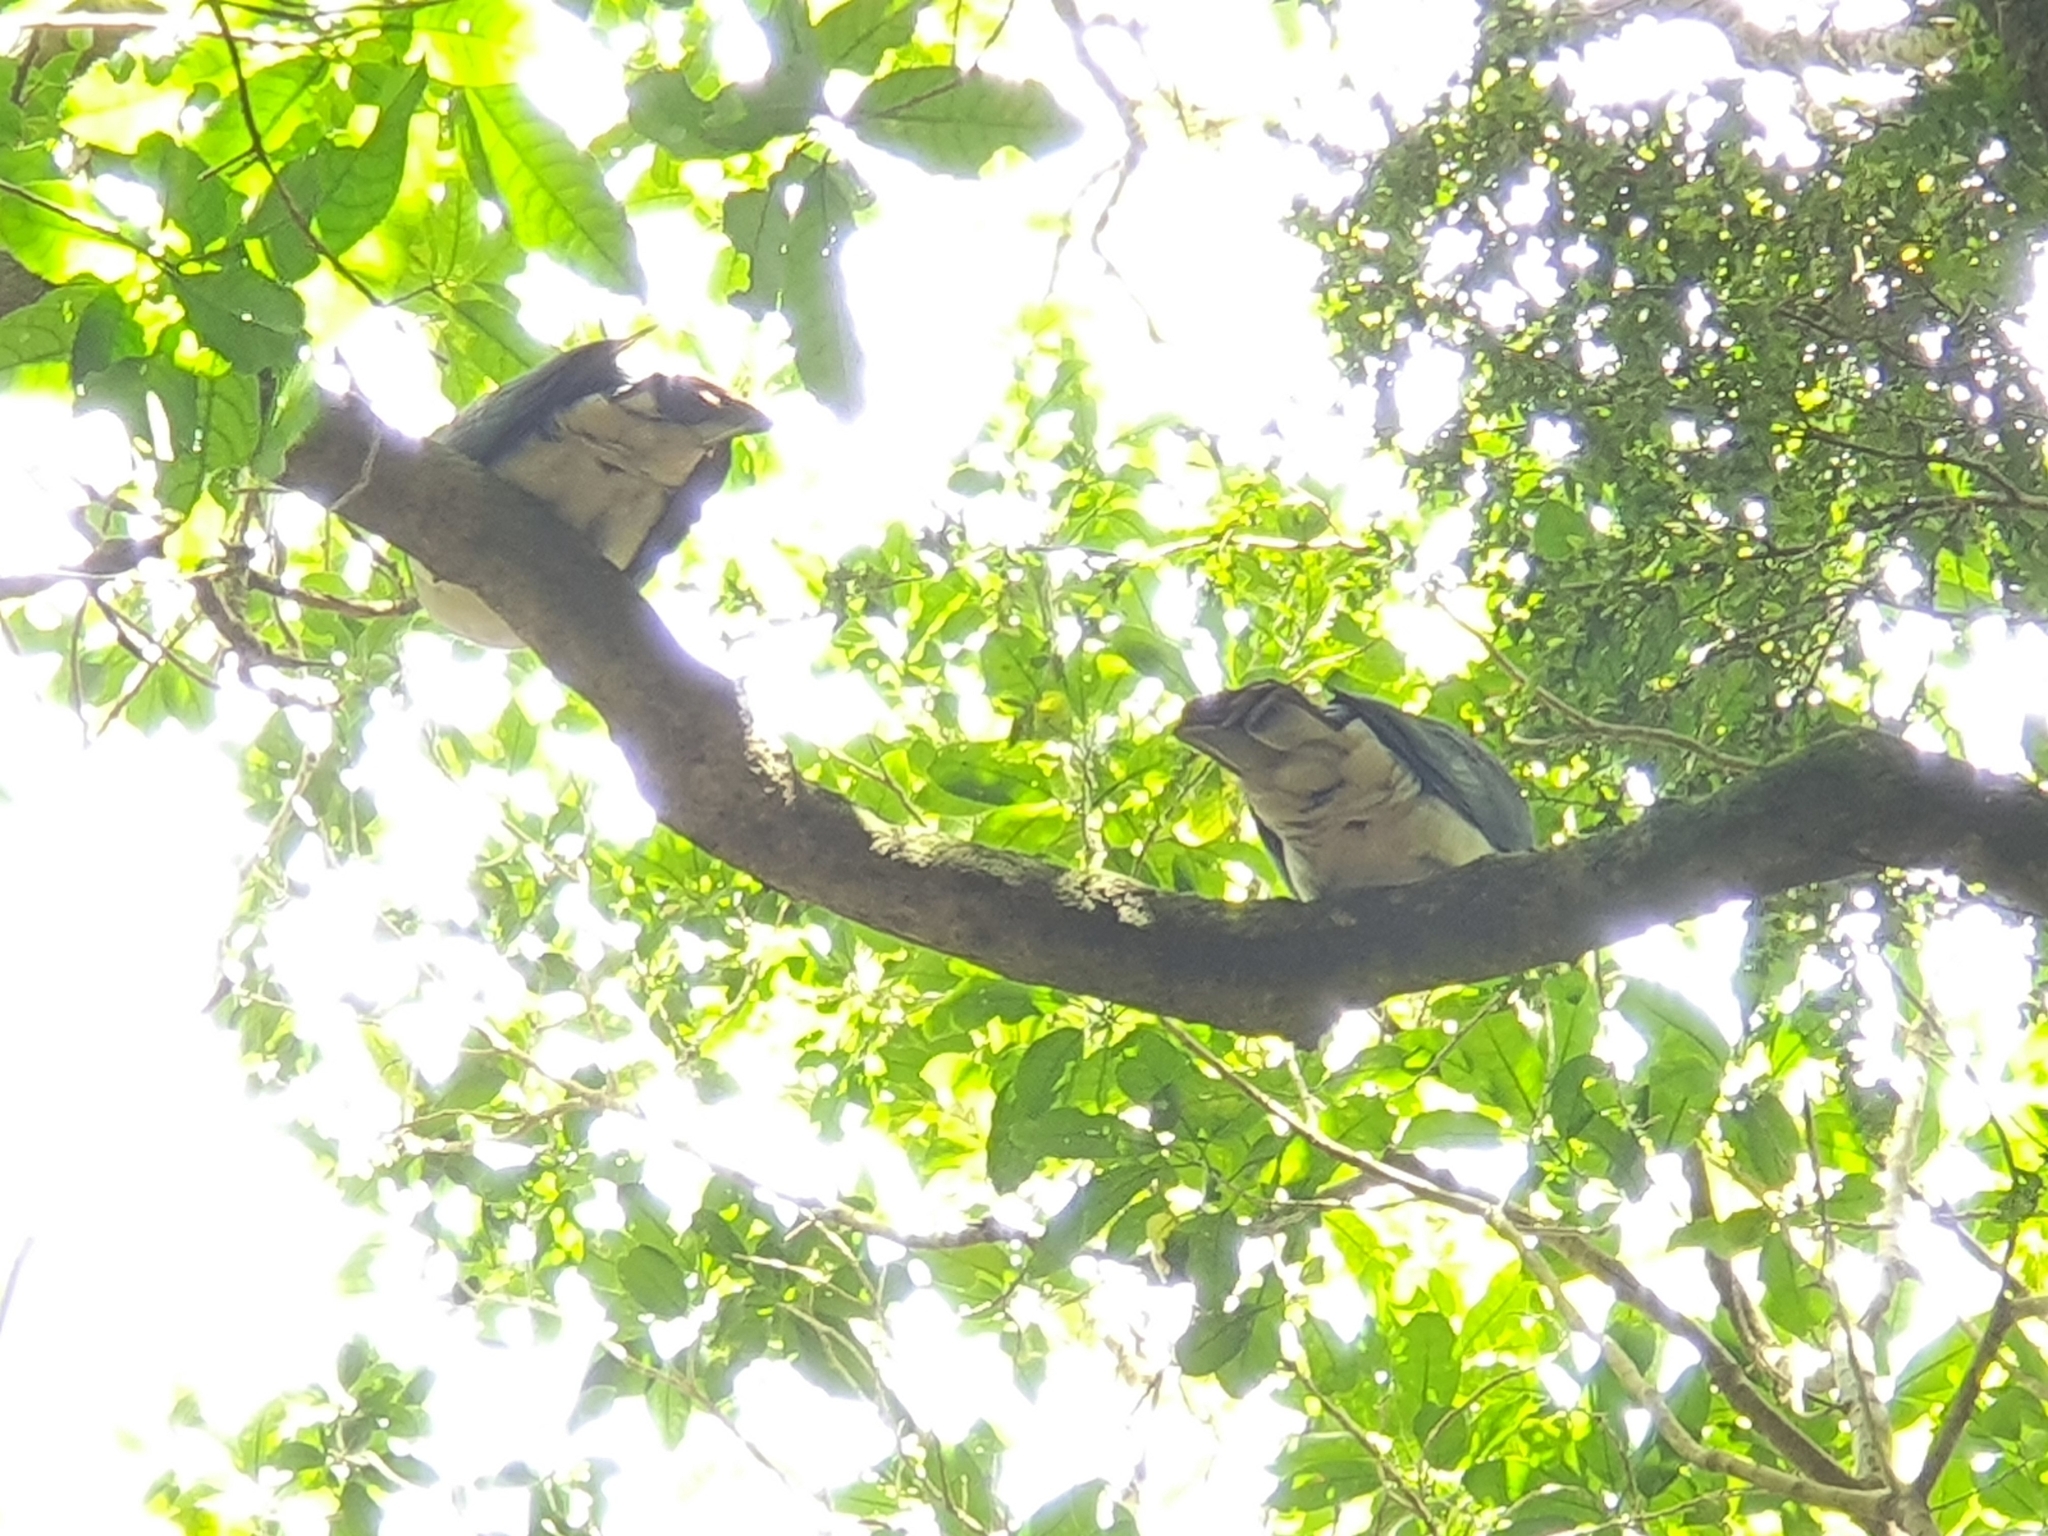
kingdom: Animalia
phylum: Chordata
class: Aves
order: Columbiformes
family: Columbidae
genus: Hemiphaga
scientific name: Hemiphaga novaeseelandiae
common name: New zealand pigeon
